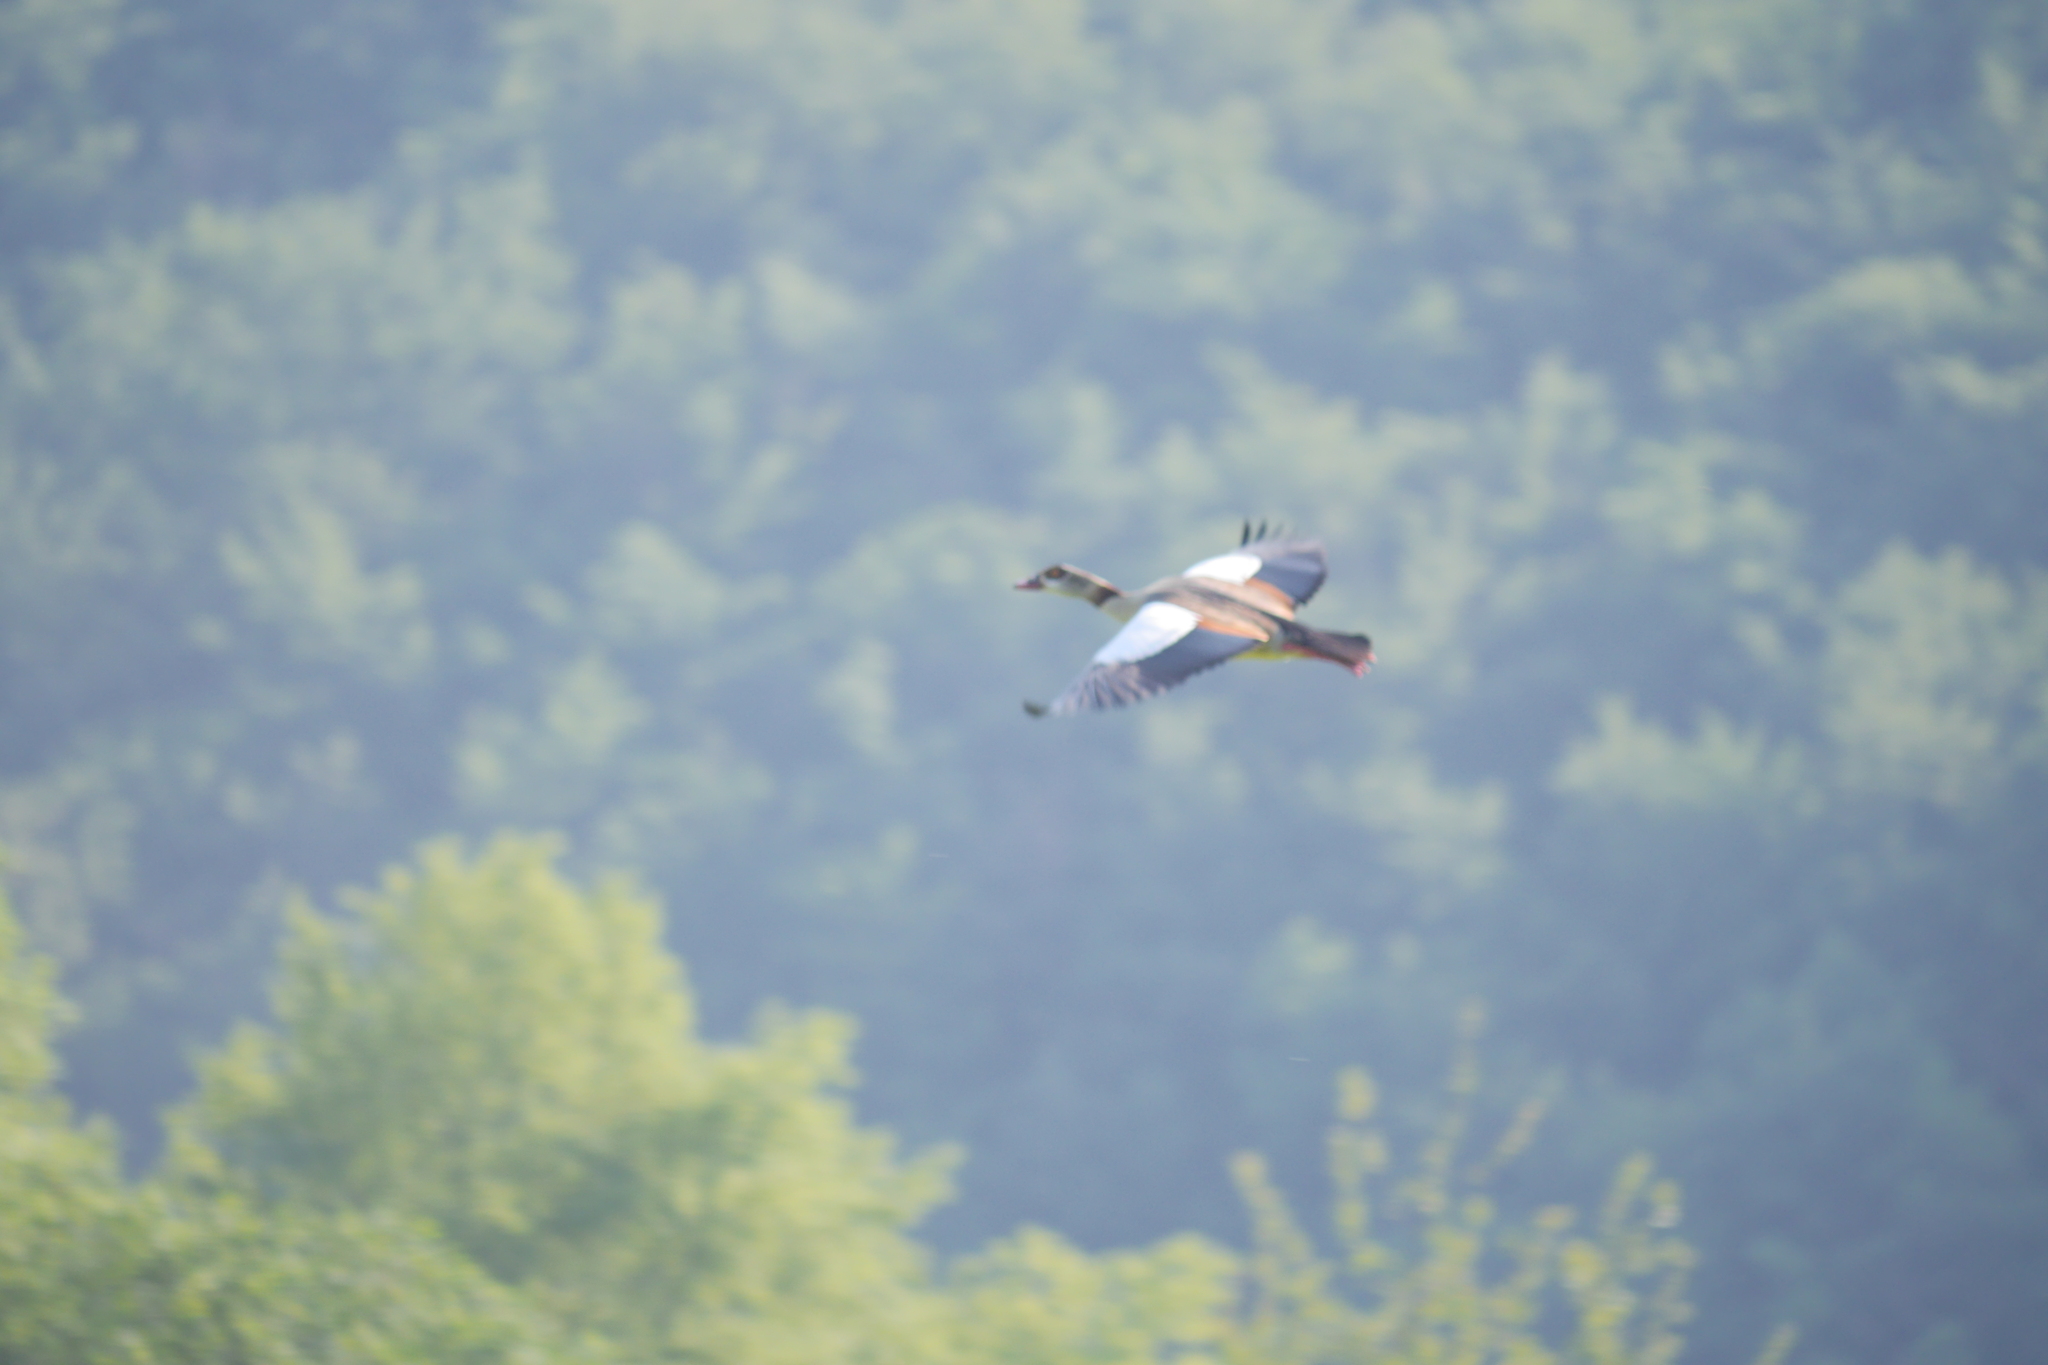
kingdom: Animalia
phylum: Chordata
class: Aves
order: Anseriformes
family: Anatidae
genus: Alopochen
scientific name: Alopochen aegyptiaca
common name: Egyptian goose
